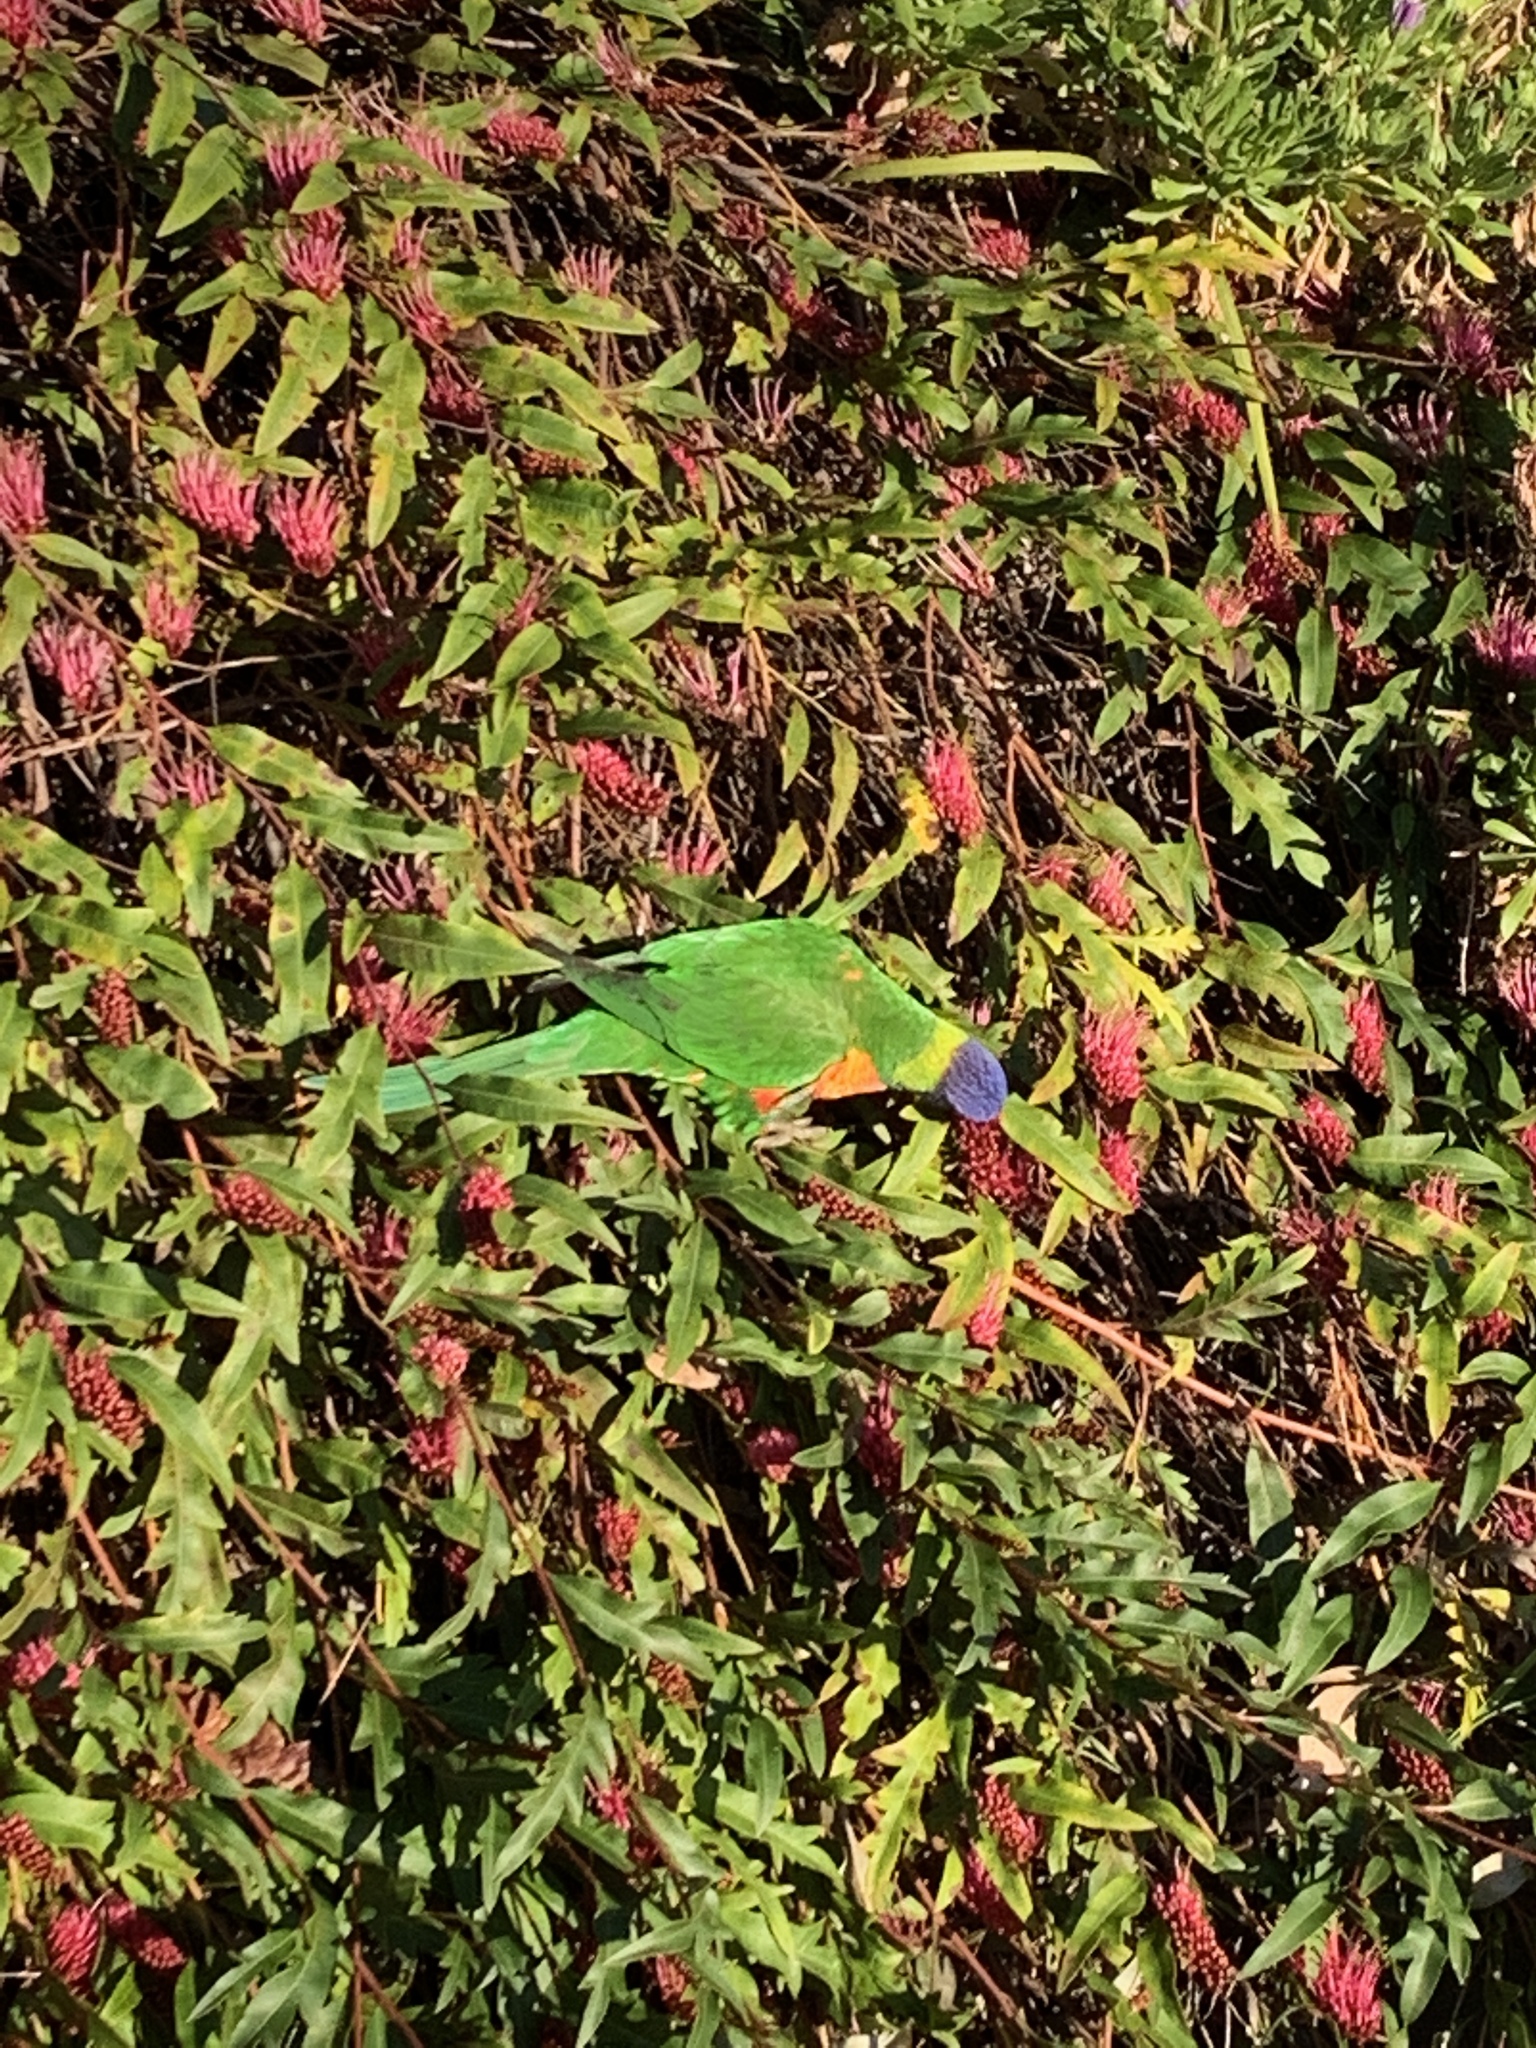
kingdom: Animalia
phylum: Chordata
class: Aves
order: Psittaciformes
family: Psittacidae
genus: Trichoglossus
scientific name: Trichoglossus haematodus
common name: Coconut lorikeet
